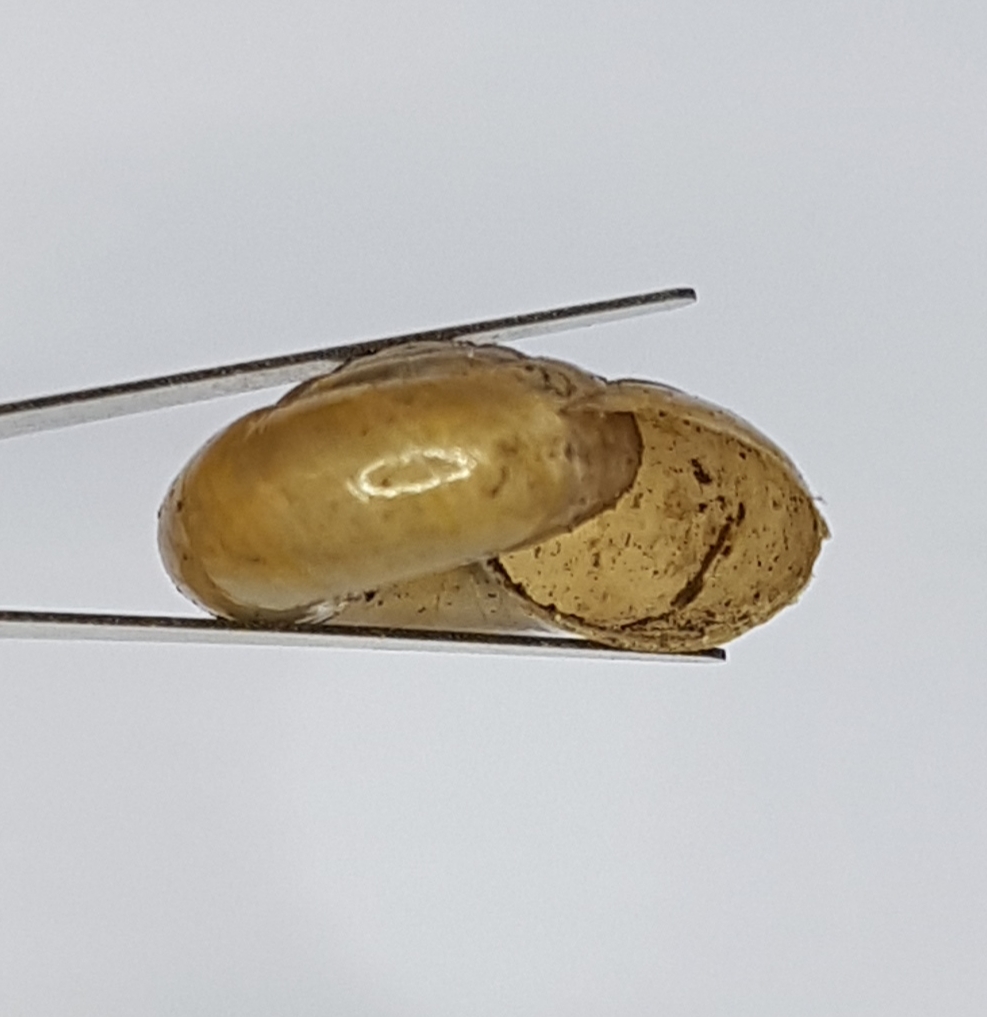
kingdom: Animalia
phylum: Mollusca
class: Gastropoda
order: Stylommatophora
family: Oxychilidae
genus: Oxychilus
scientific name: Oxychilus draparnaudi
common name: Draparnaud's glass snail
